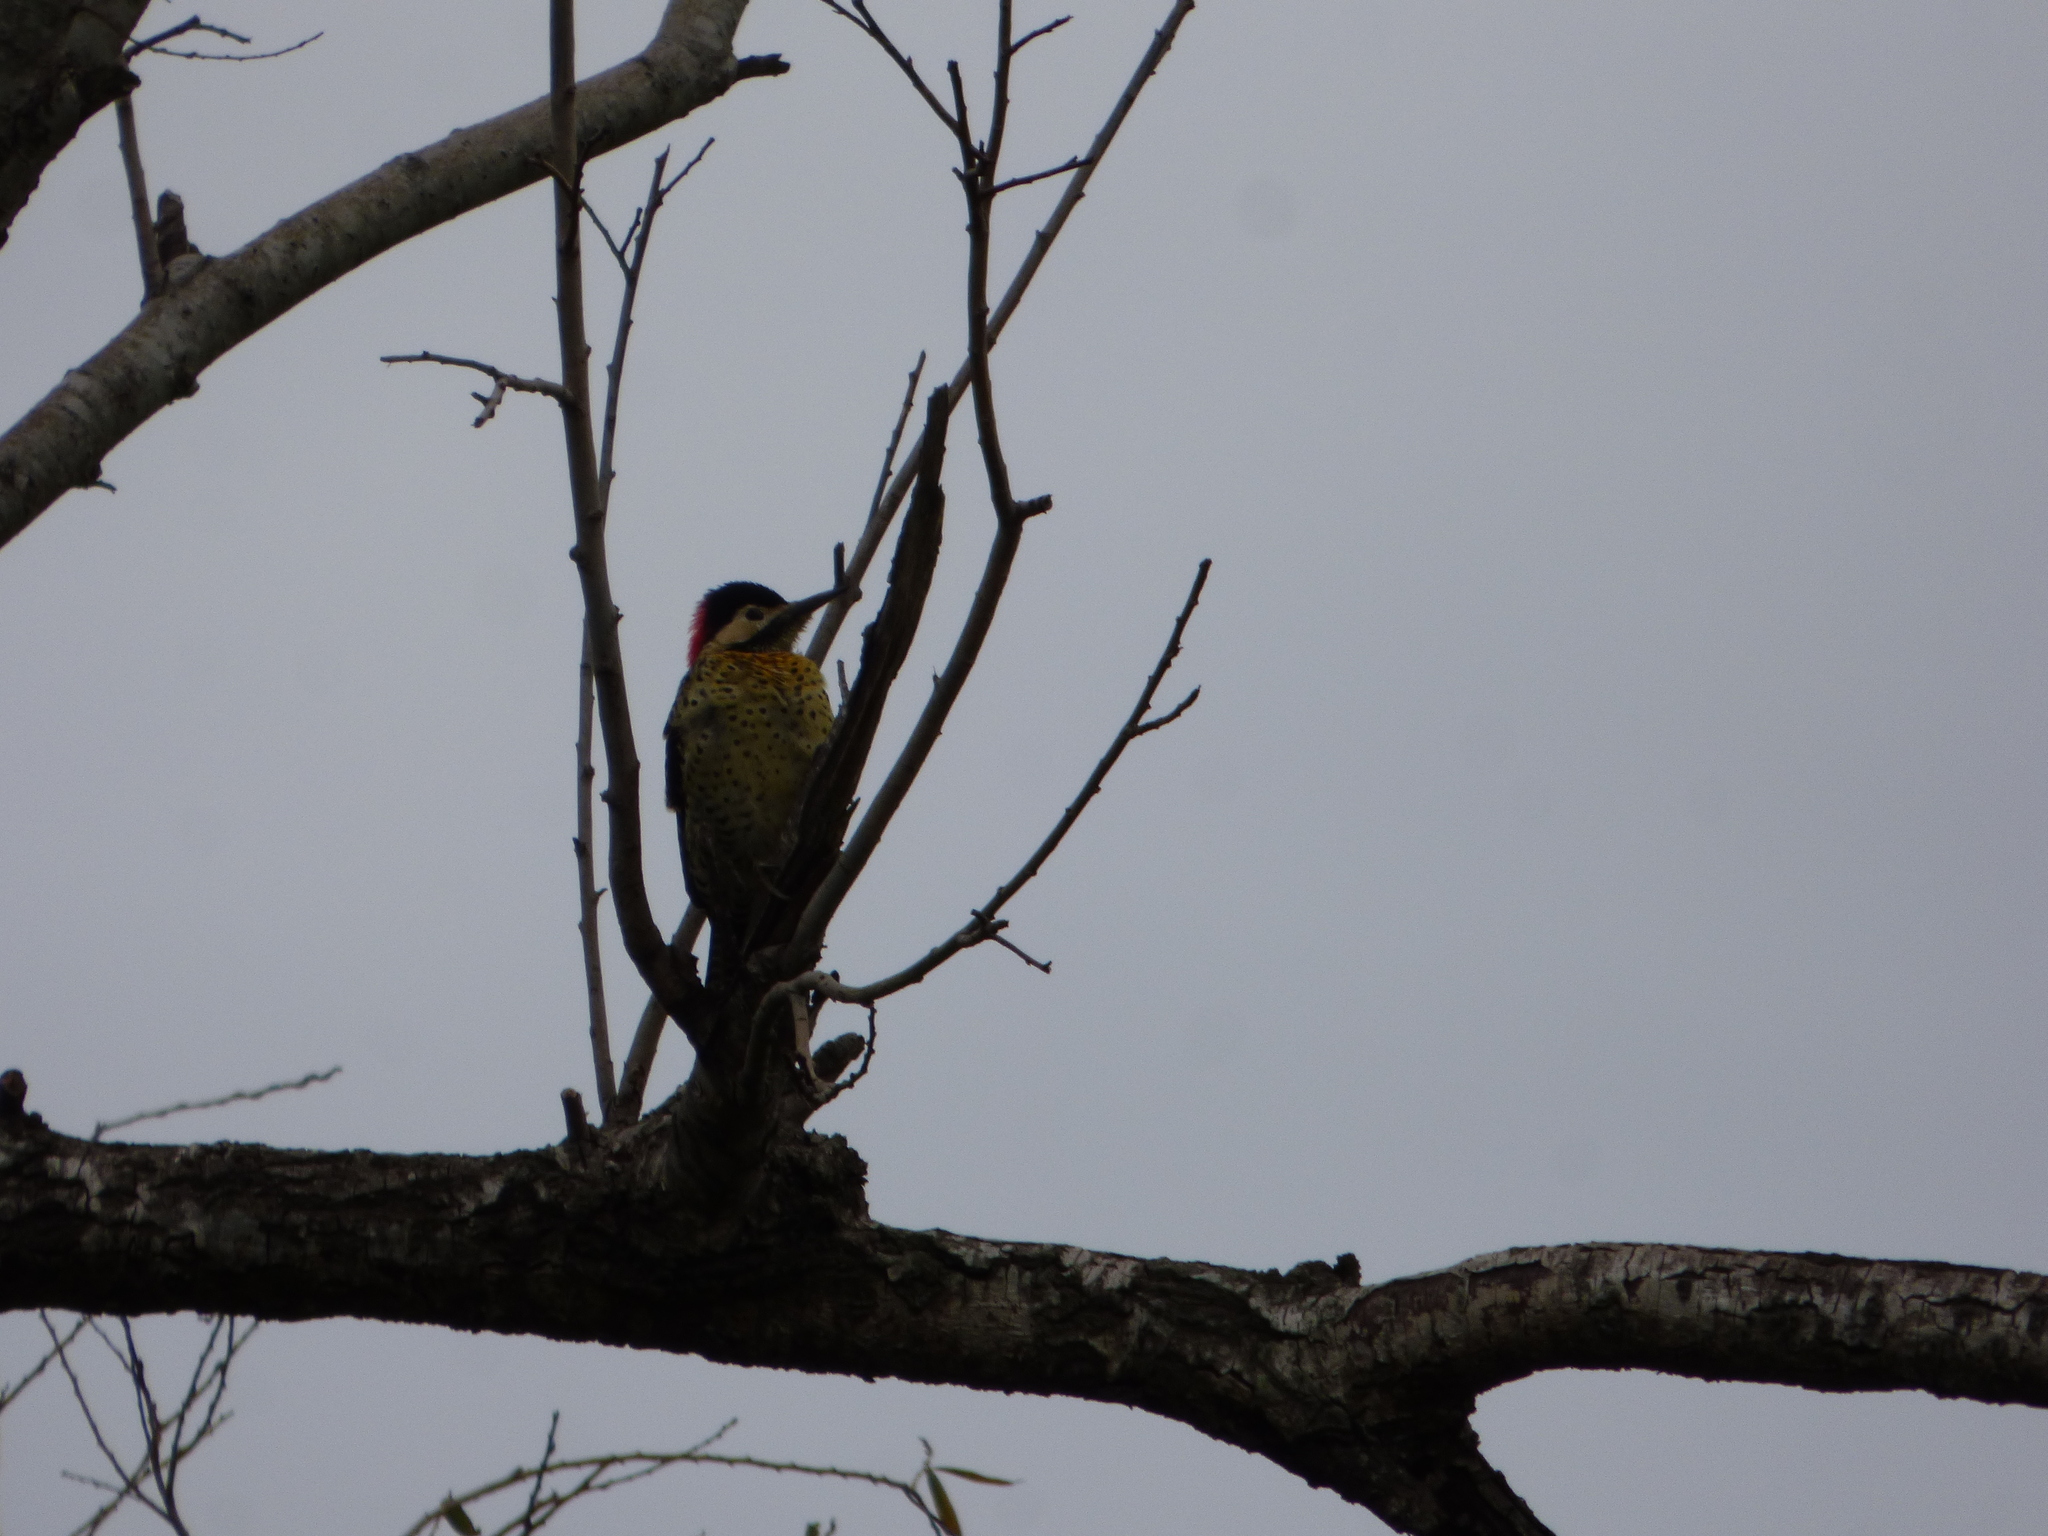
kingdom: Animalia
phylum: Chordata
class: Aves
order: Piciformes
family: Picidae
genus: Colaptes
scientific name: Colaptes melanochloros
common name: Green-barred woodpecker
